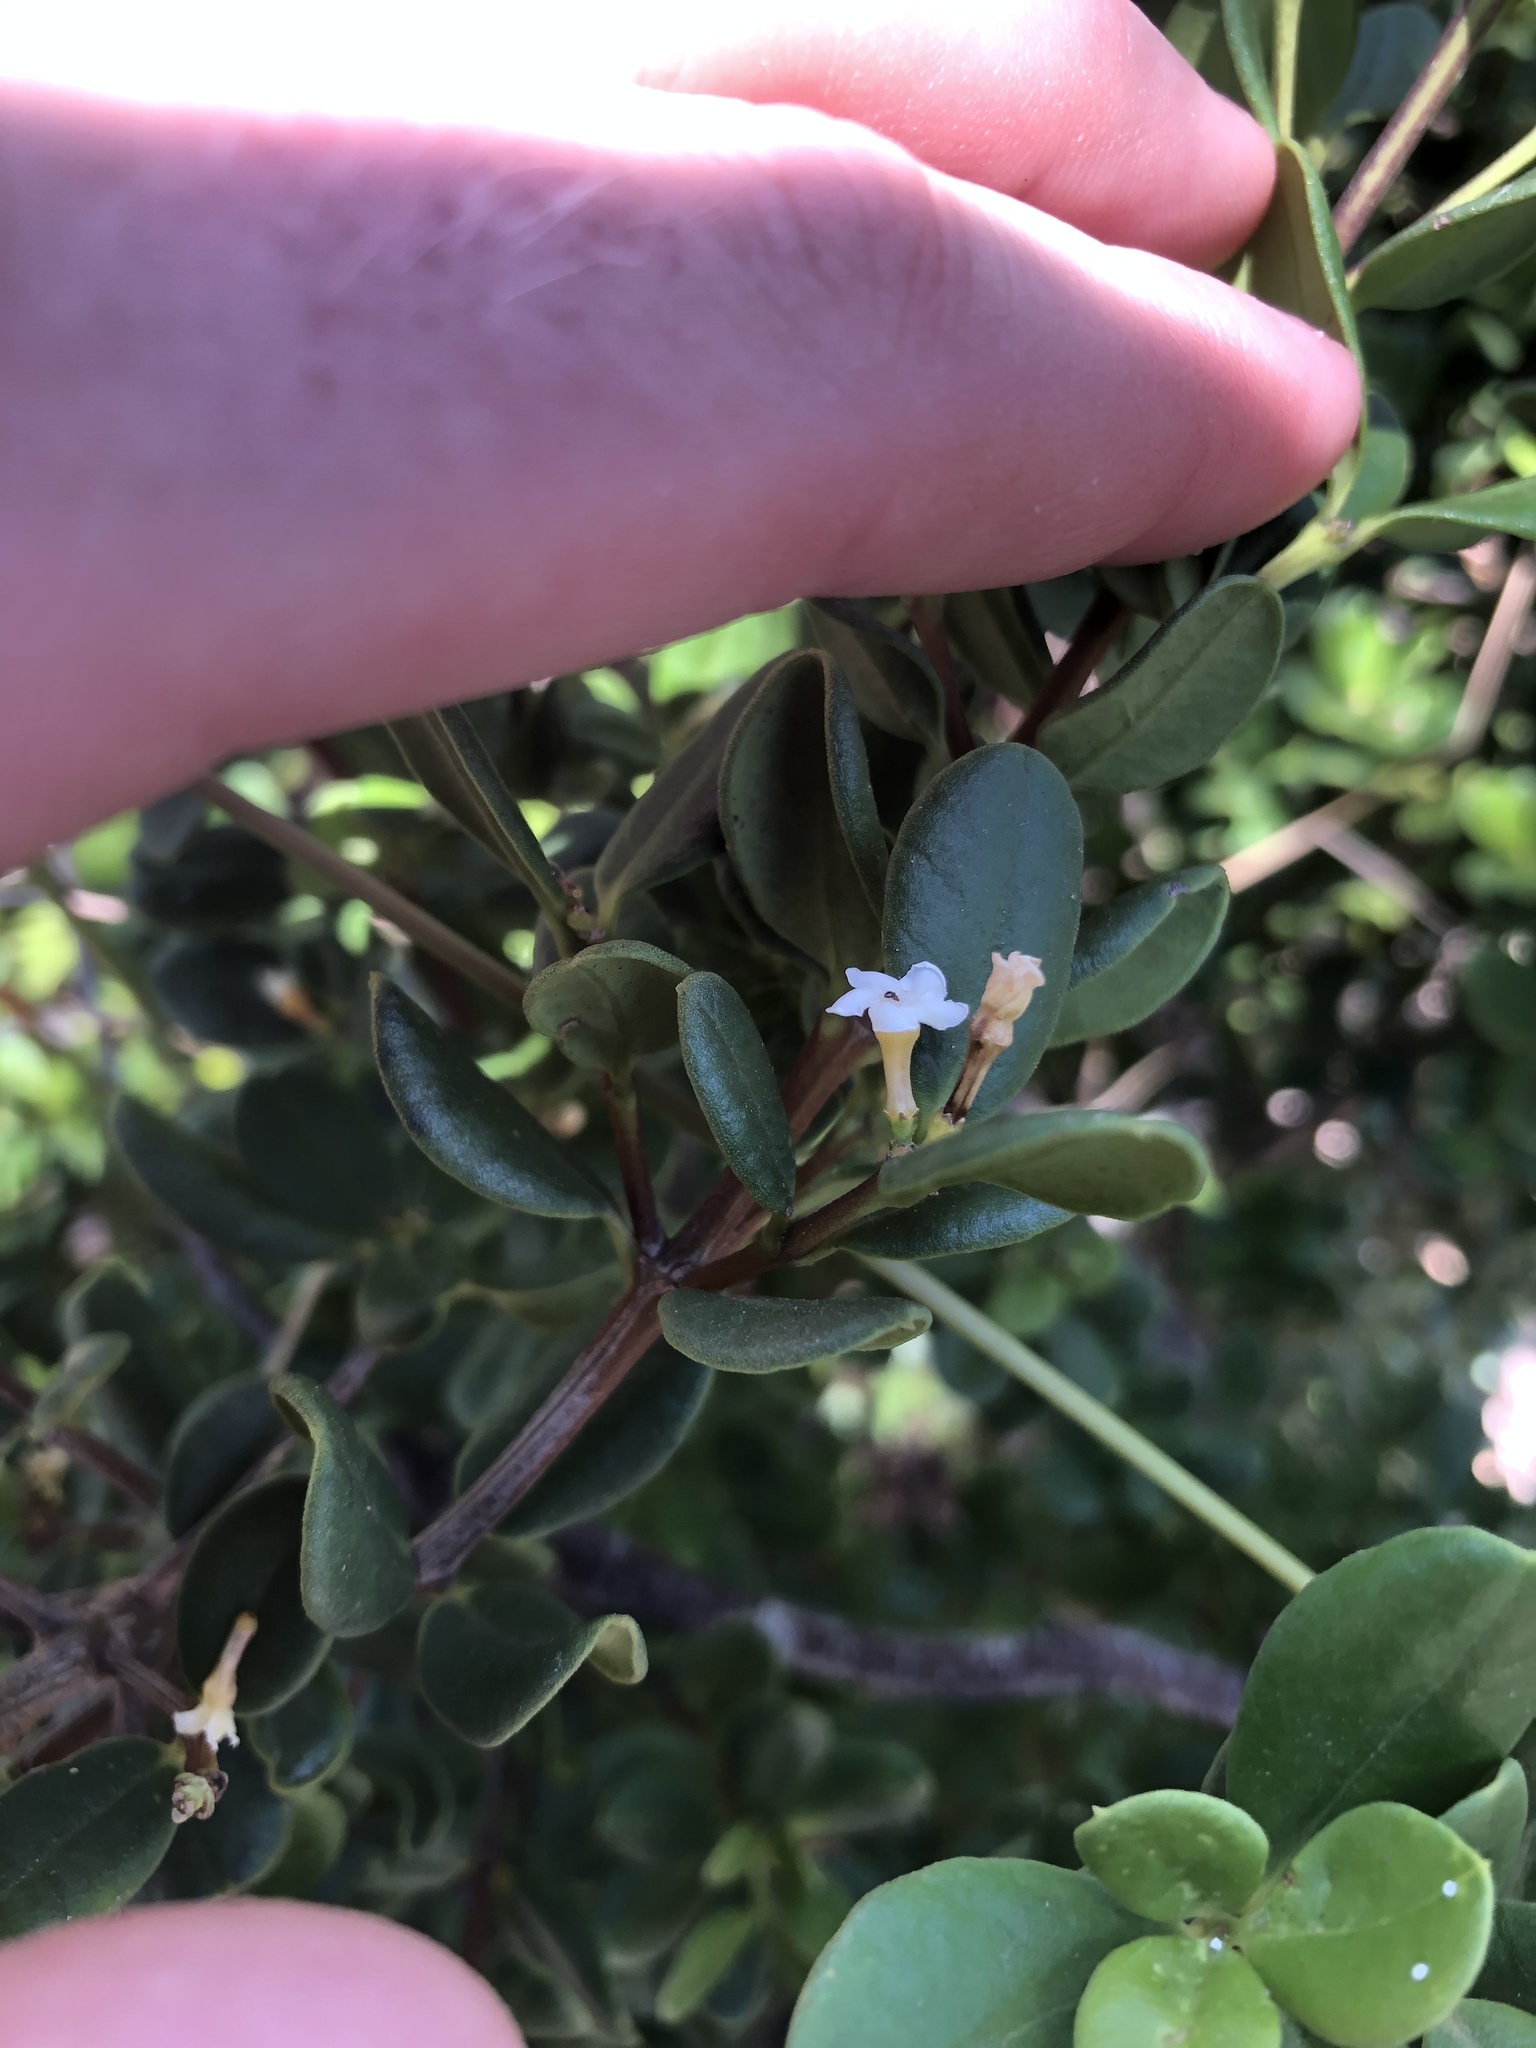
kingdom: Plantae
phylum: Tracheophyta
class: Magnoliopsida
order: Gentianales
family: Apocynaceae
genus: Alyxia
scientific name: Alyxia buxifolia
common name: Dysentery-bush
